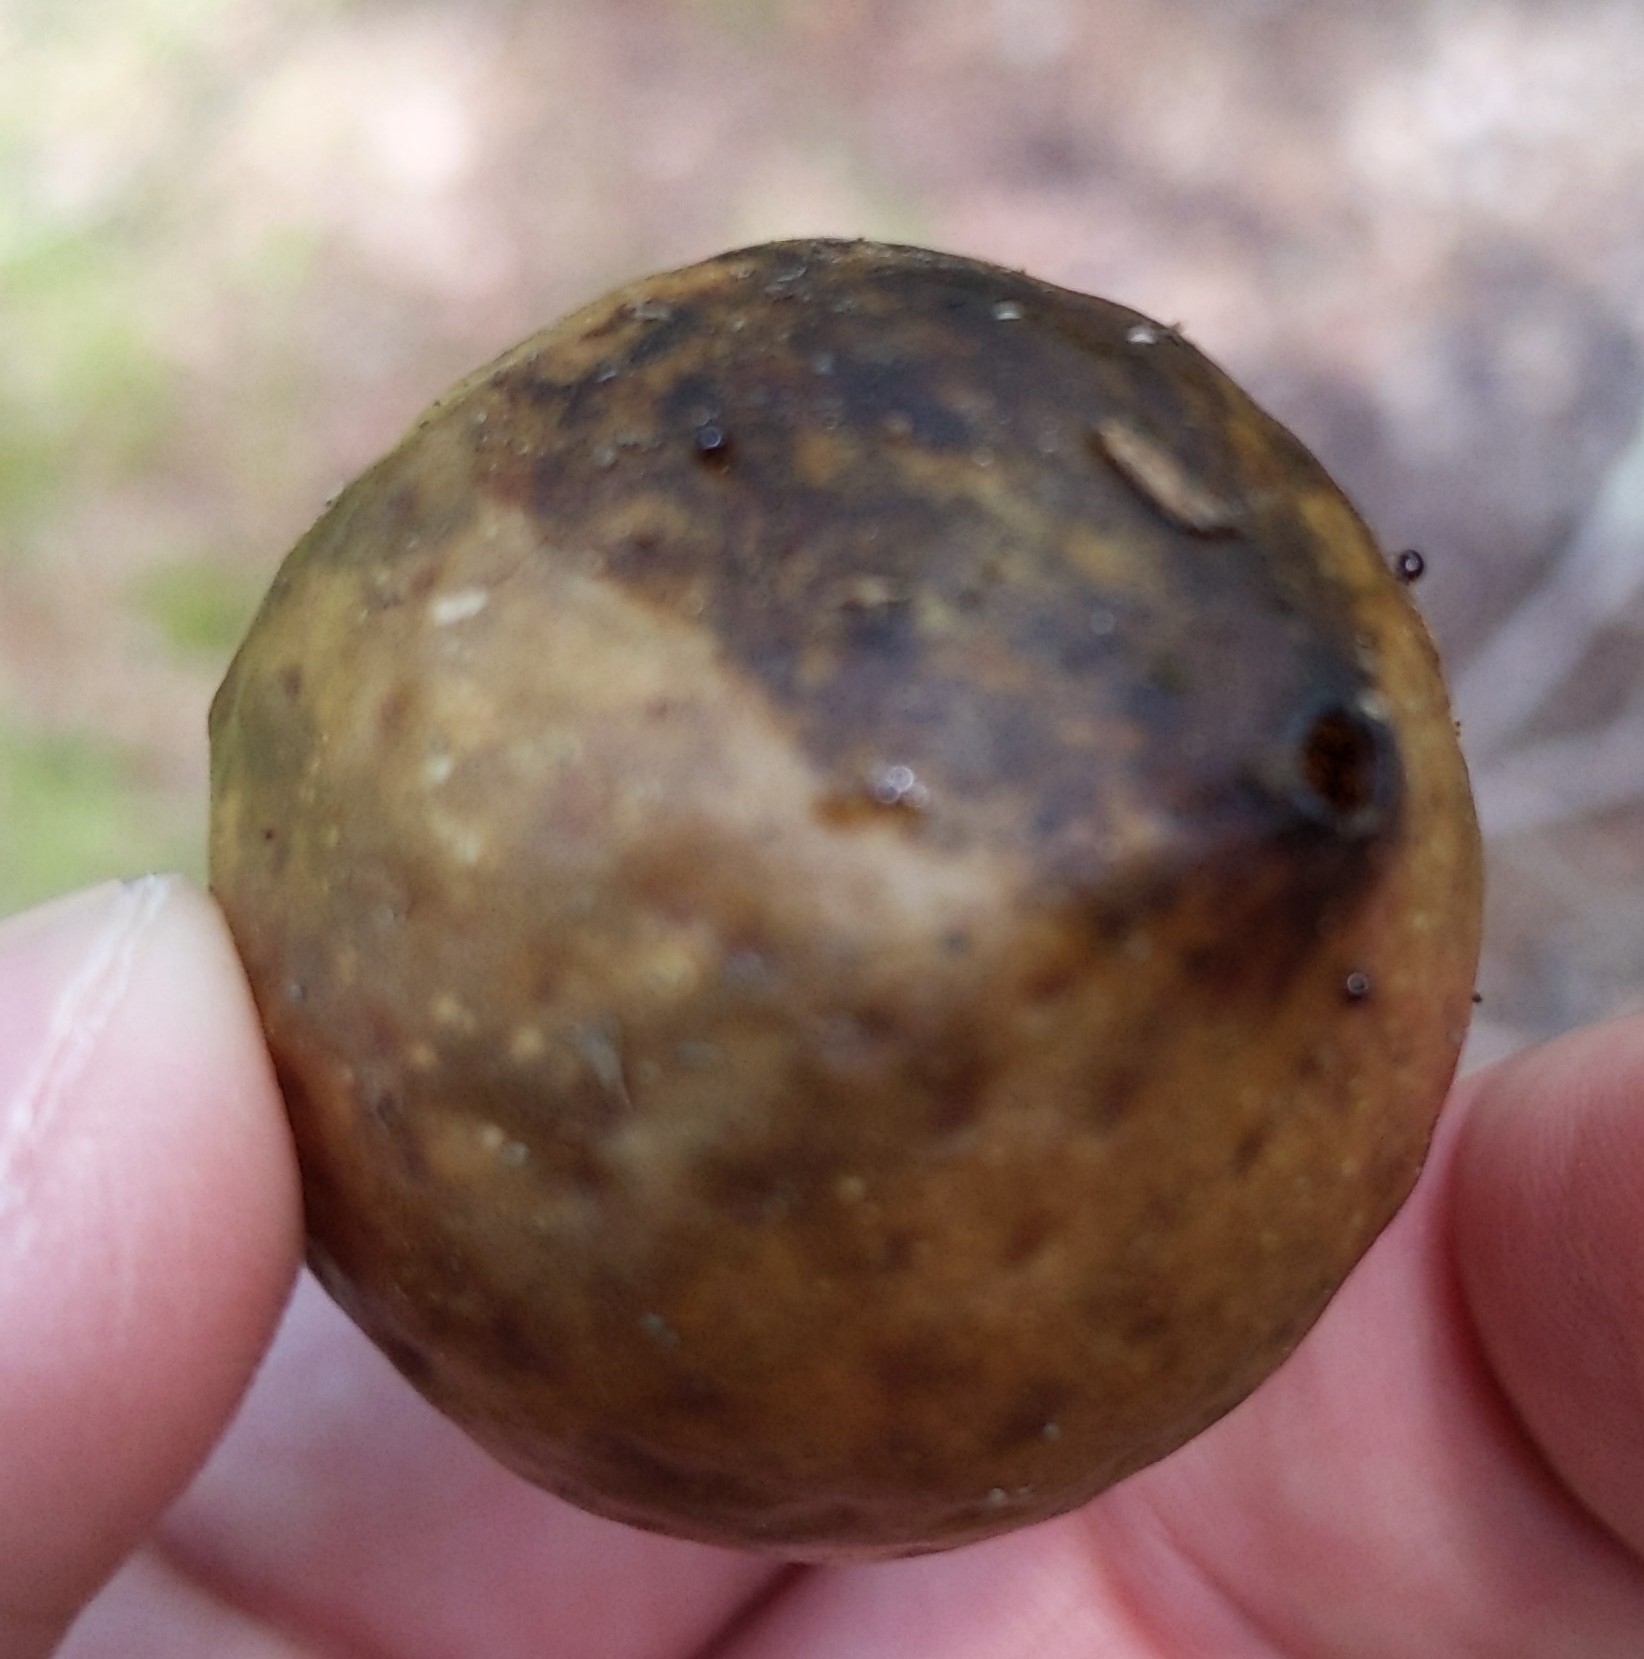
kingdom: Animalia
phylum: Arthropoda
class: Insecta
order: Hymenoptera
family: Cynipidae
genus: Amphibolips
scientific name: Amphibolips
